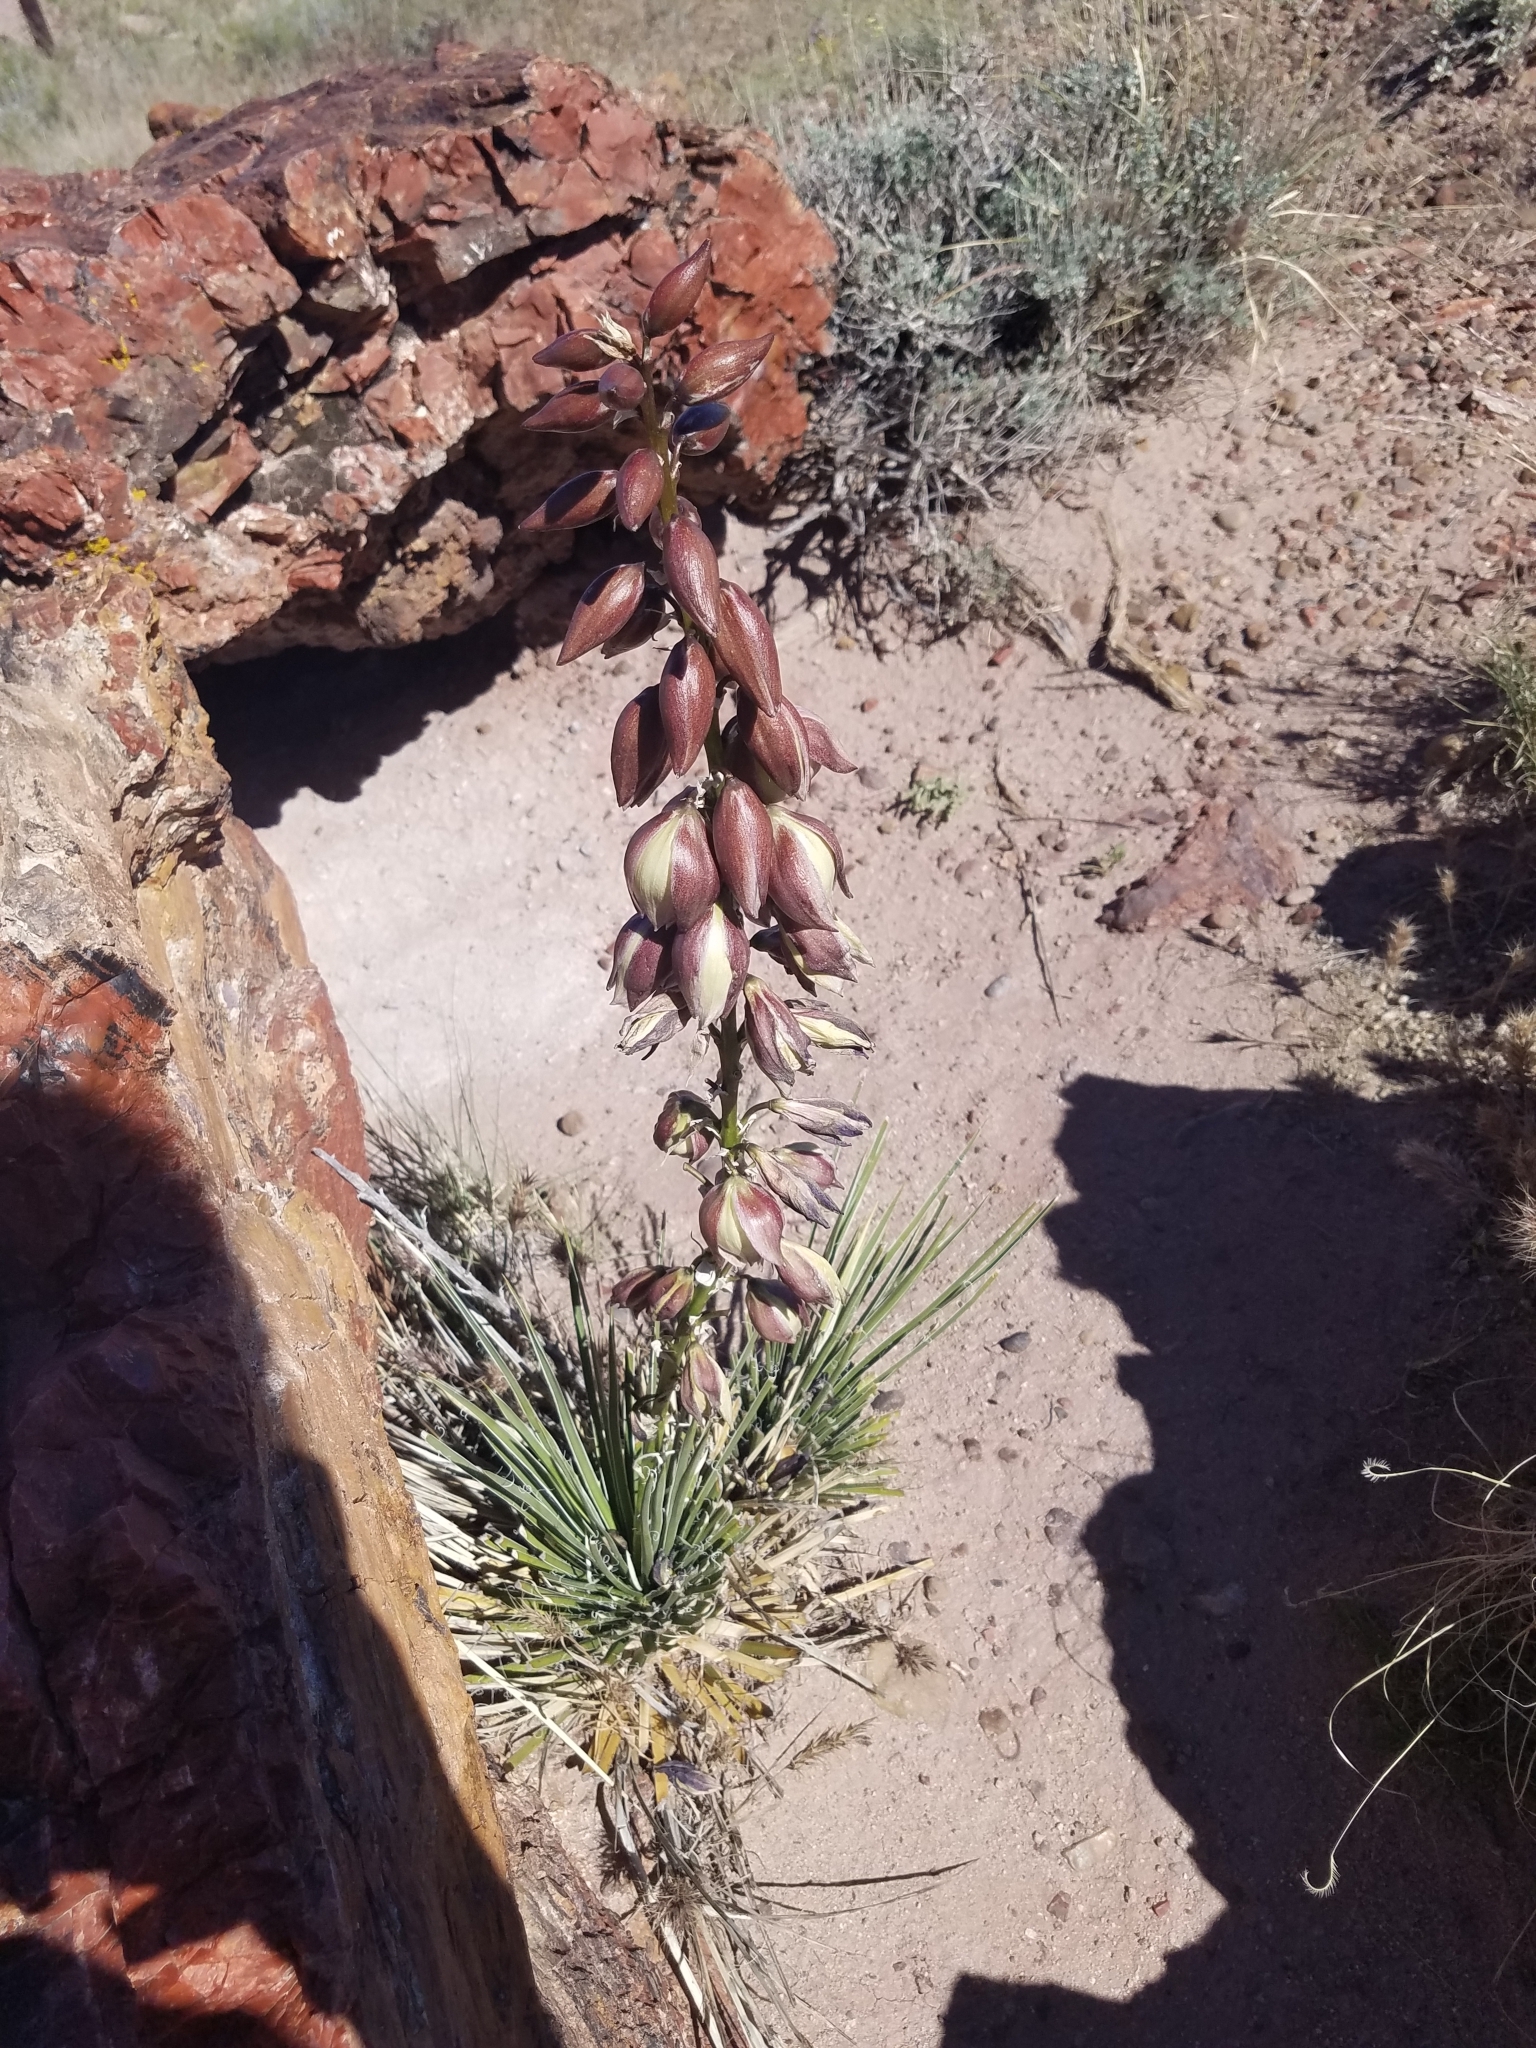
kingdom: Plantae
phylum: Tracheophyta
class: Liliopsida
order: Asparagales
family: Asparagaceae
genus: Yucca
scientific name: Yucca angustissima
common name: Narrowleaf yucca
